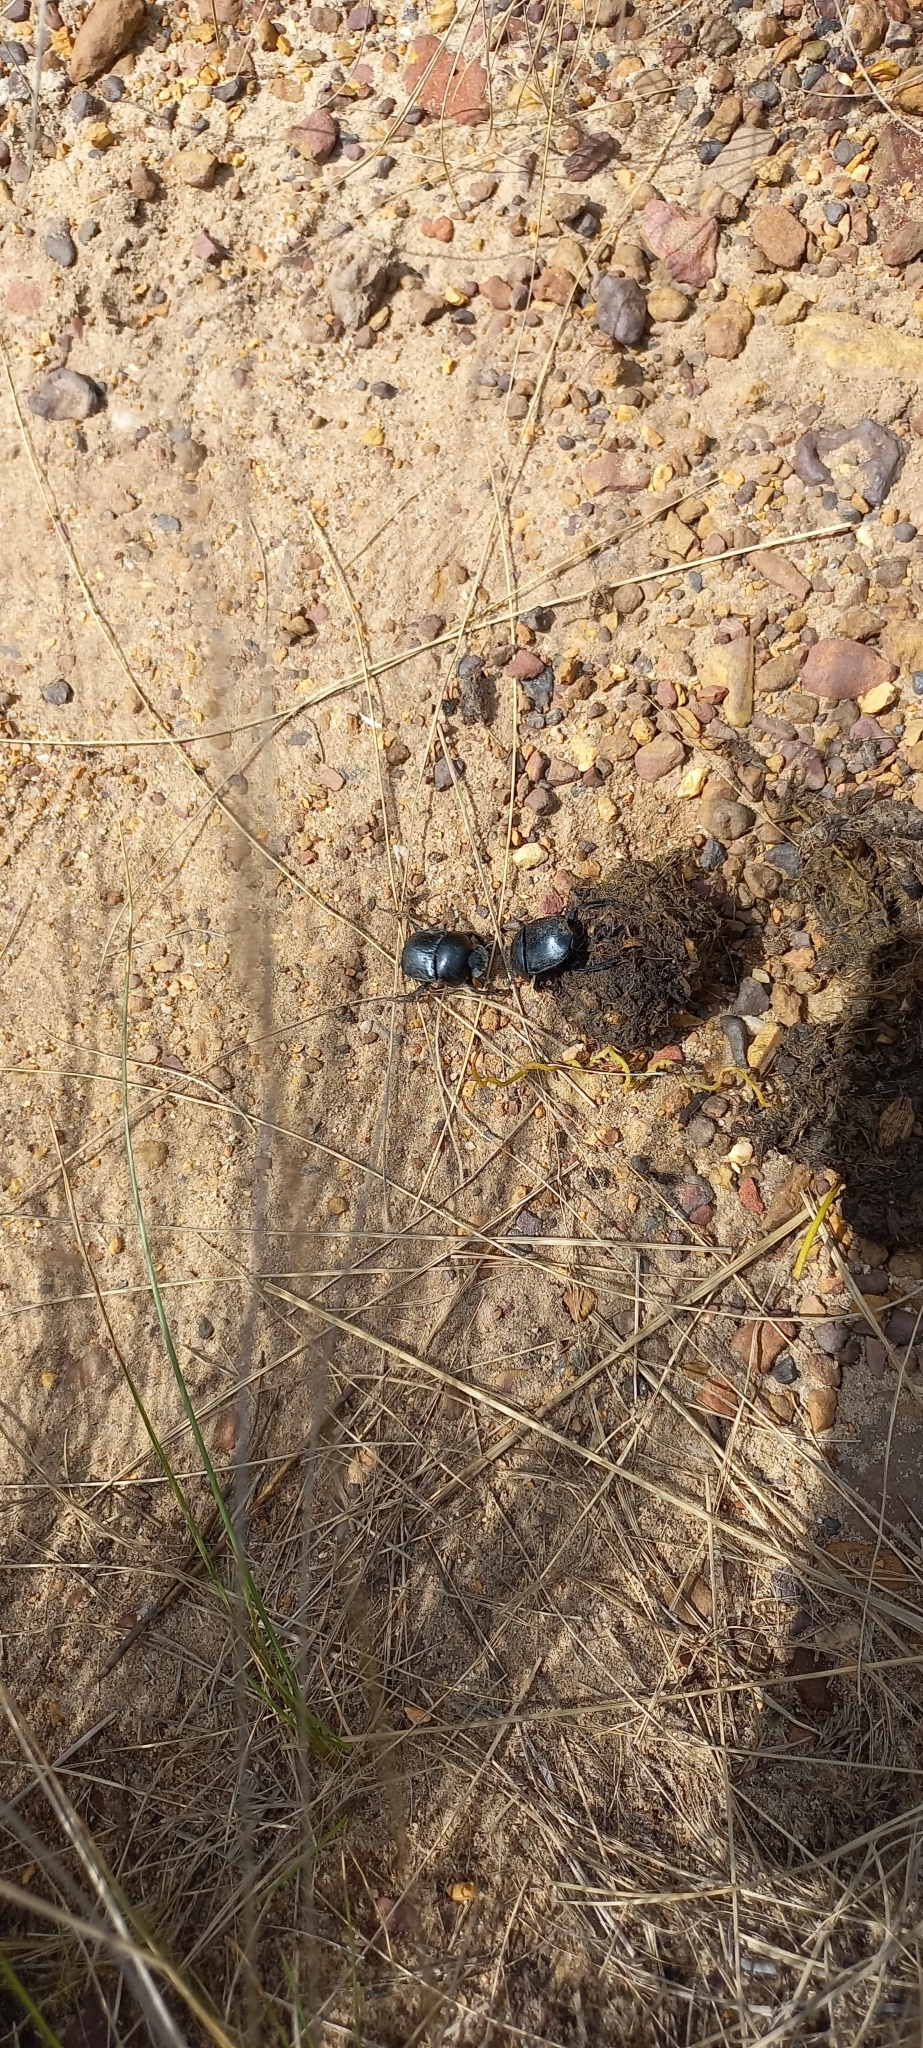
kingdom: Animalia
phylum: Arthropoda
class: Insecta
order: Coleoptera
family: Scarabaeidae
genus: Scarabaeus
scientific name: Scarabaeus viator
